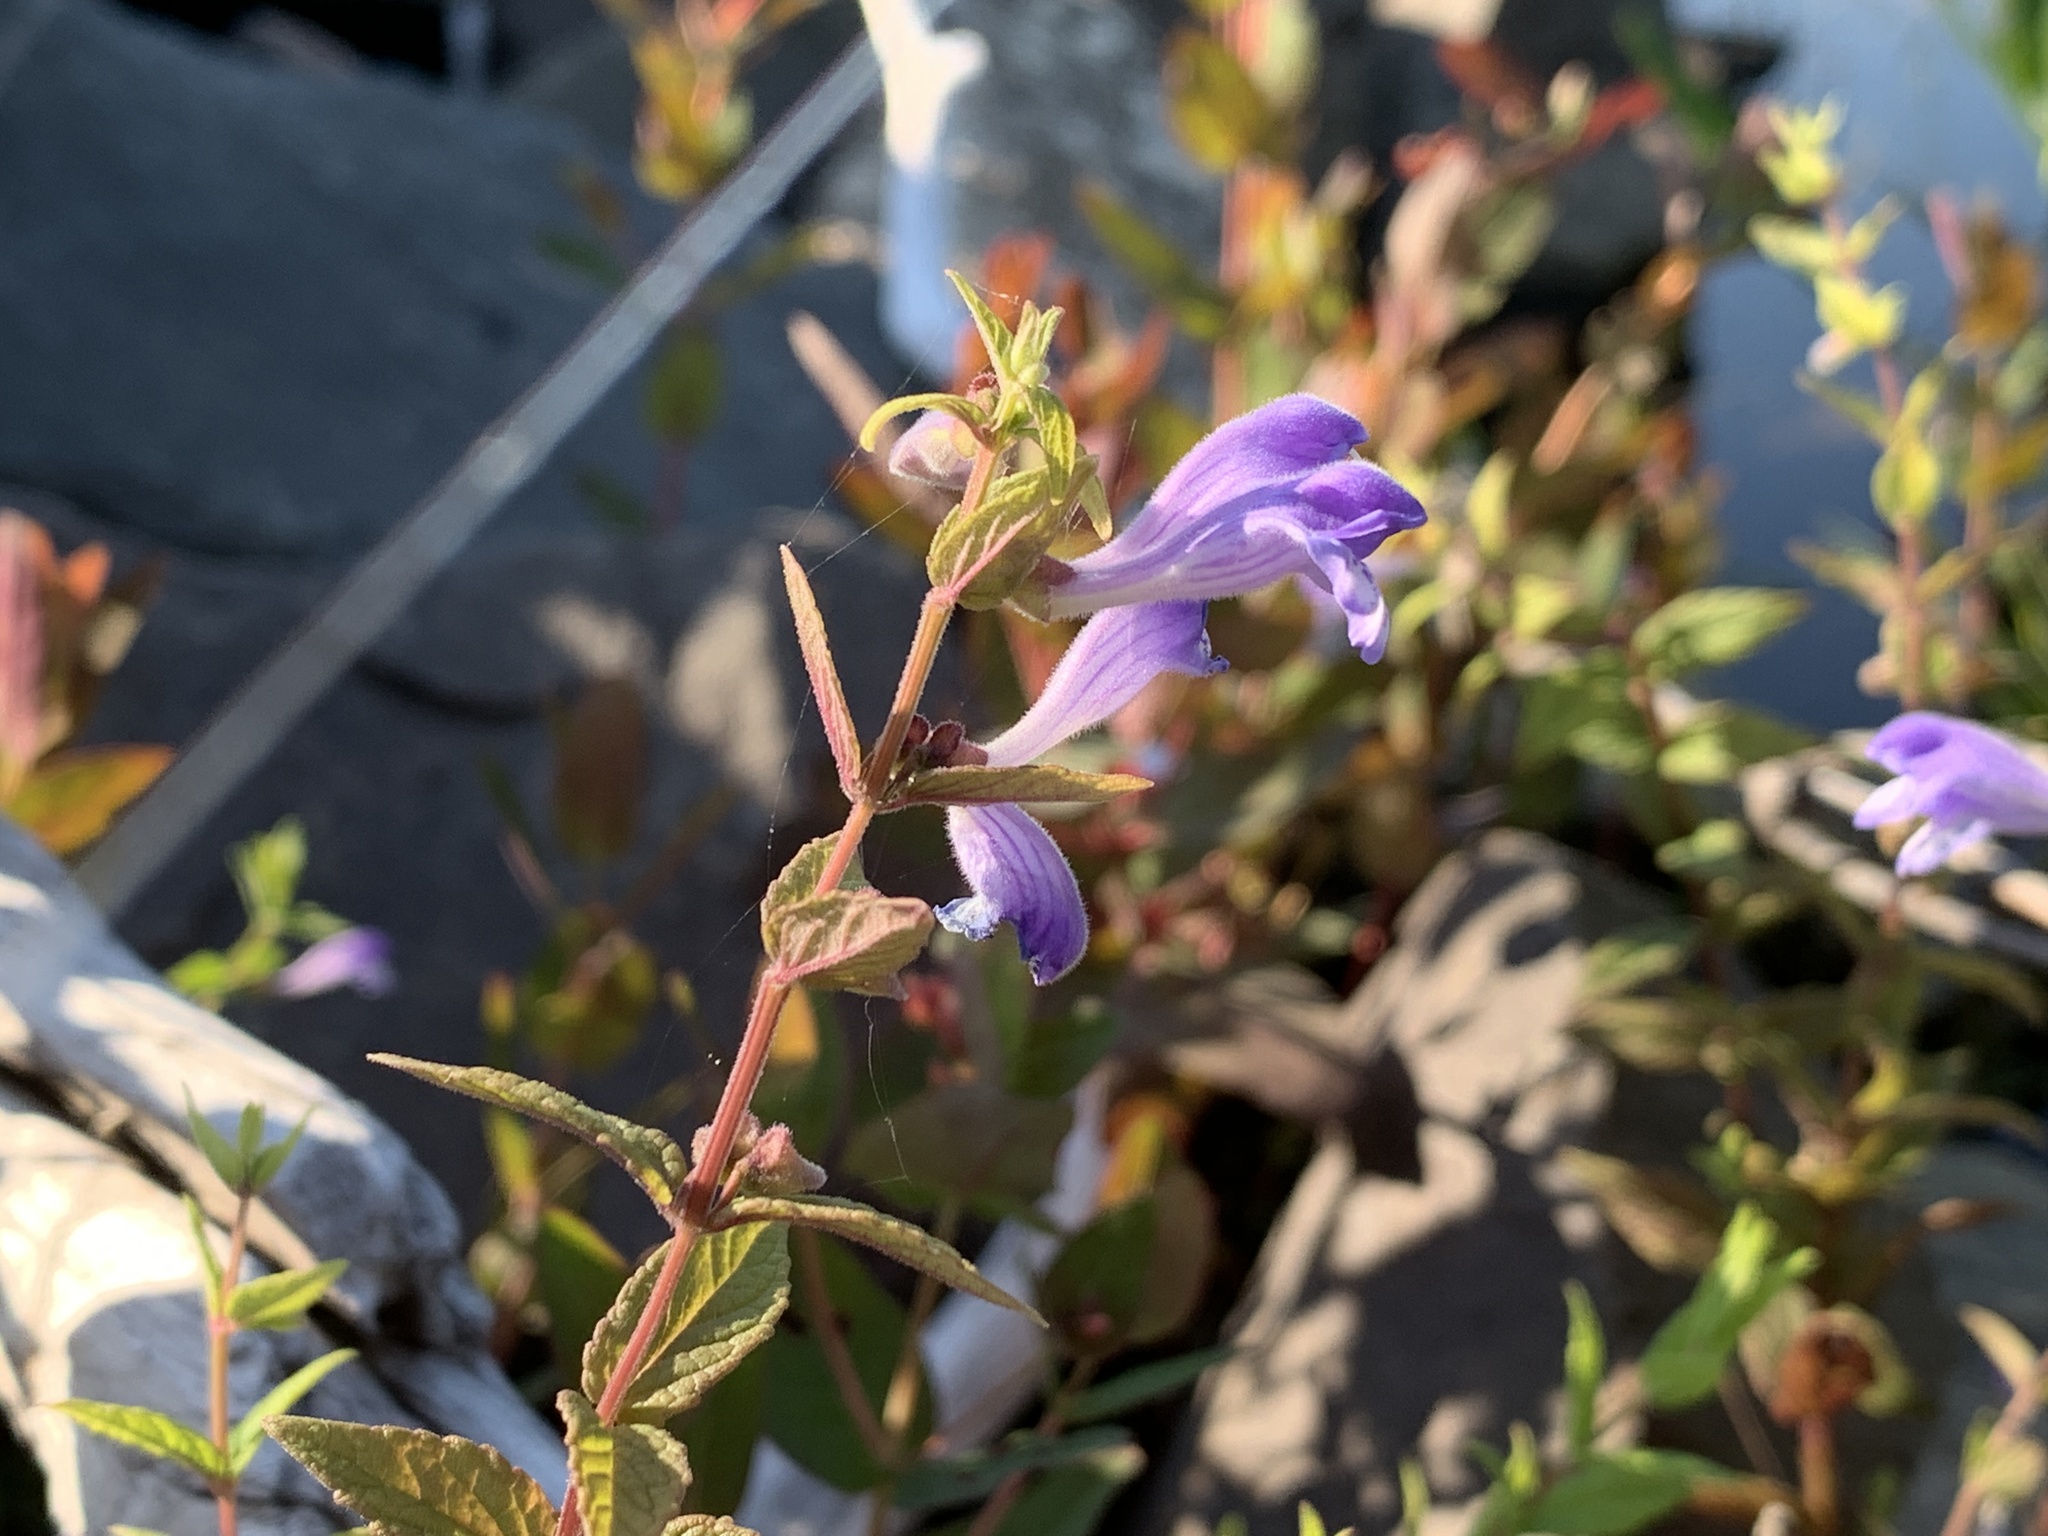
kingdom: Plantae
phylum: Tracheophyta
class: Magnoliopsida
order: Lamiales
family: Lamiaceae
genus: Scutellaria
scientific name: Scutellaria galericulata
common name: Skullcap
